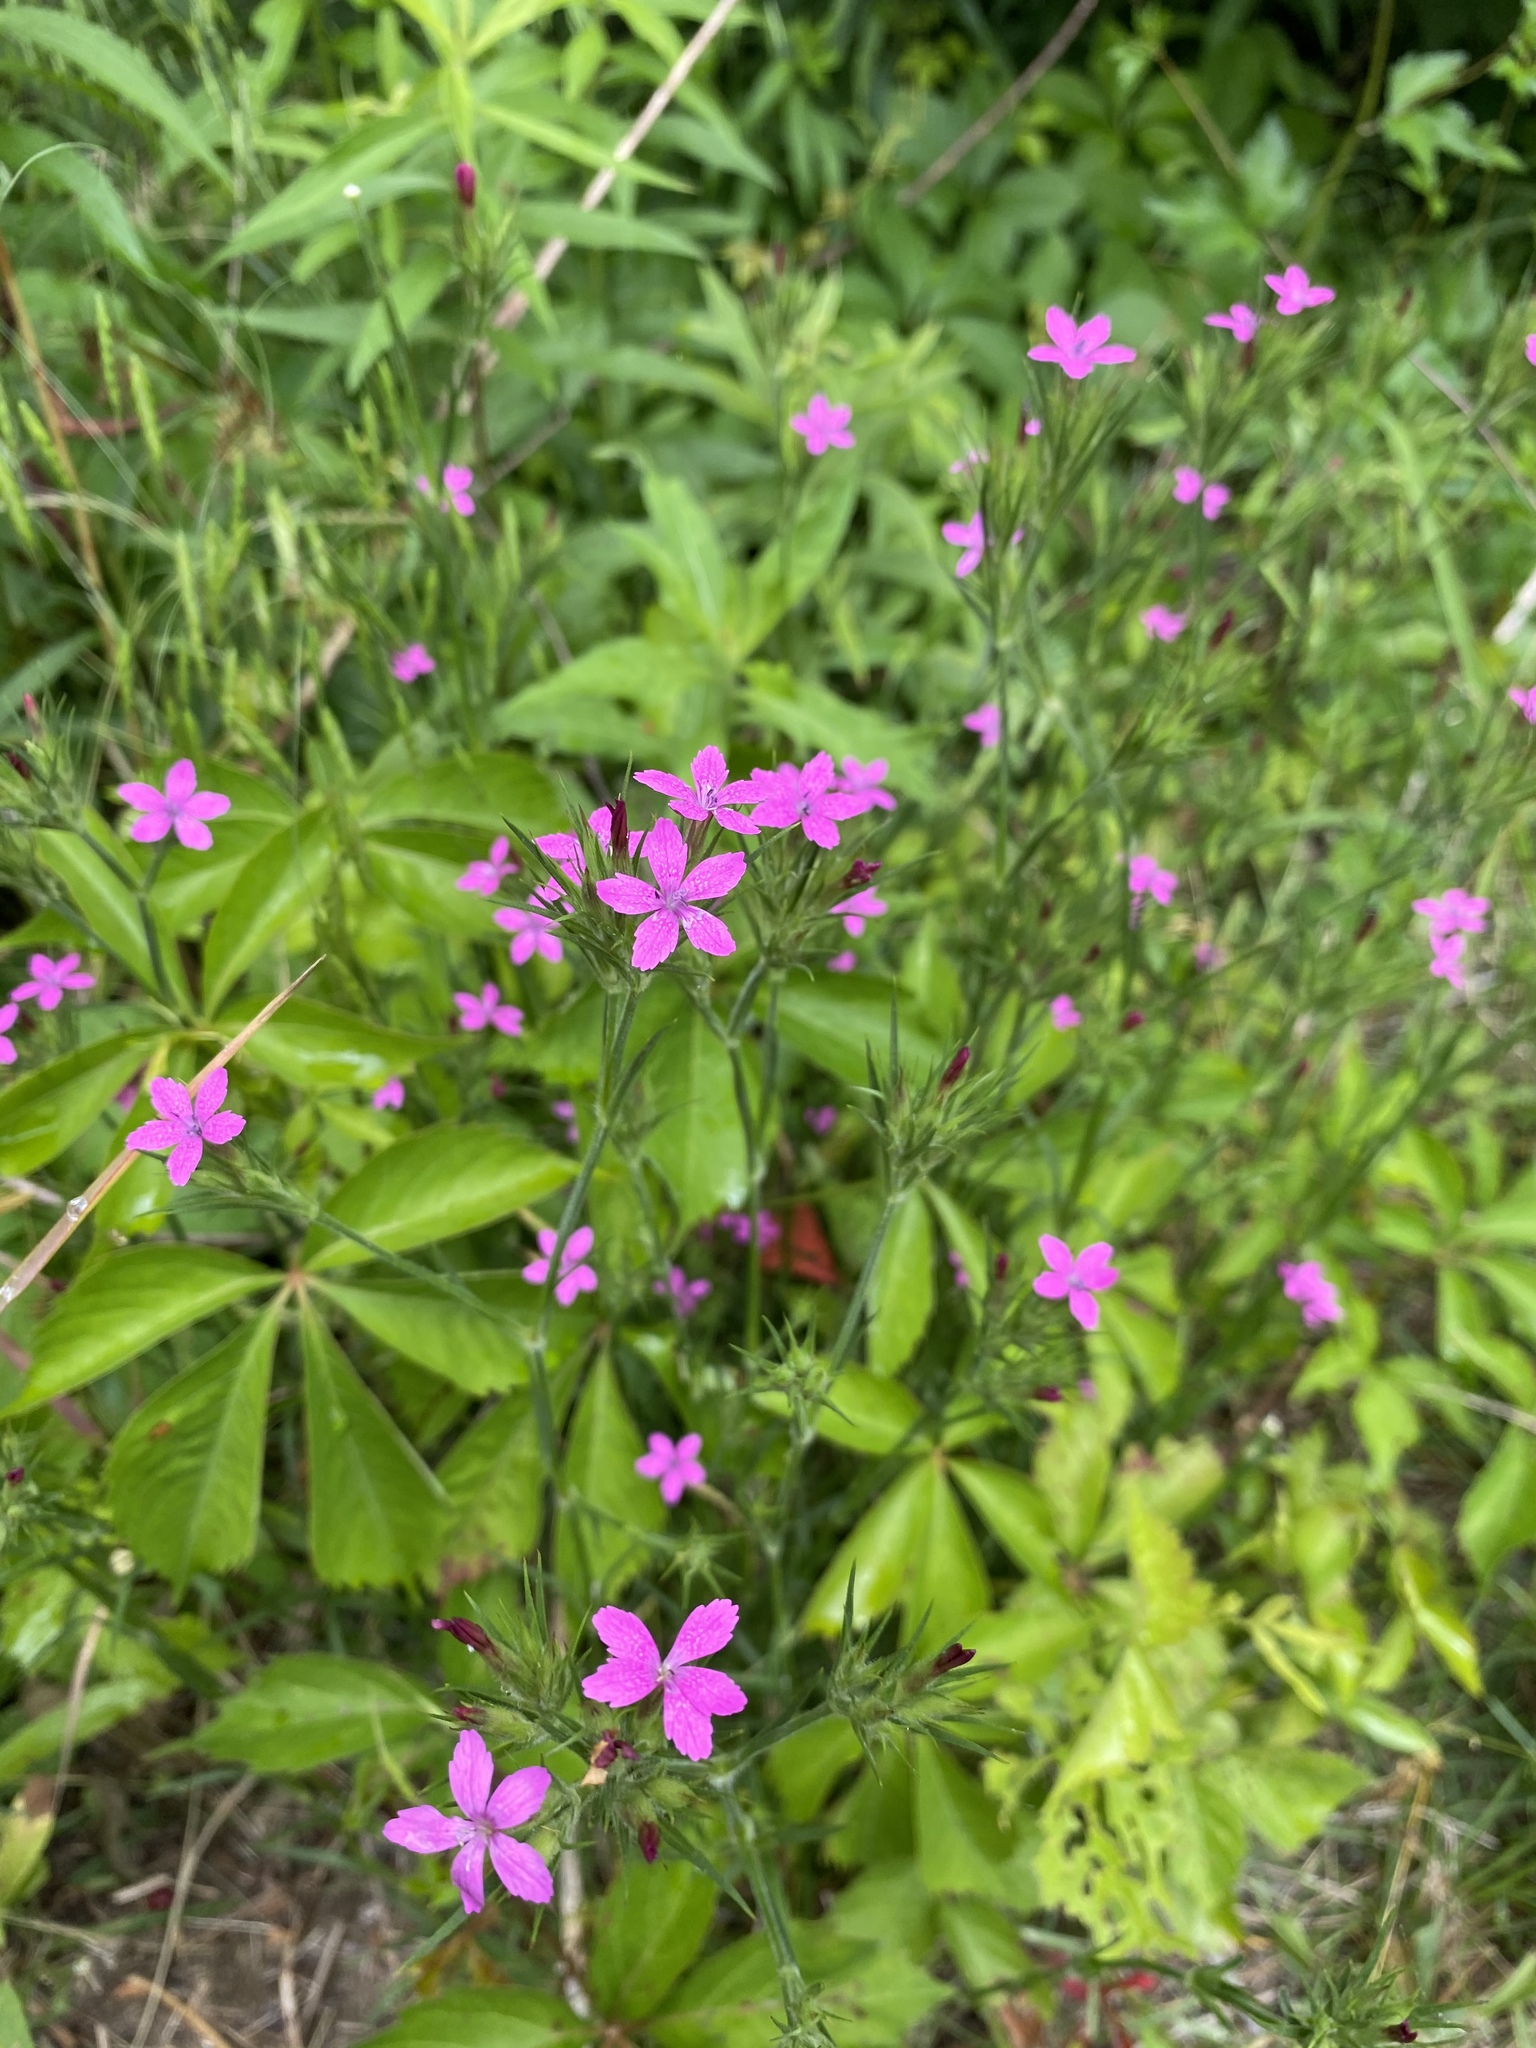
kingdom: Plantae
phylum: Tracheophyta
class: Magnoliopsida
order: Caryophyllales
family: Caryophyllaceae
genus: Dianthus
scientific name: Dianthus armeria
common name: Deptford pink
